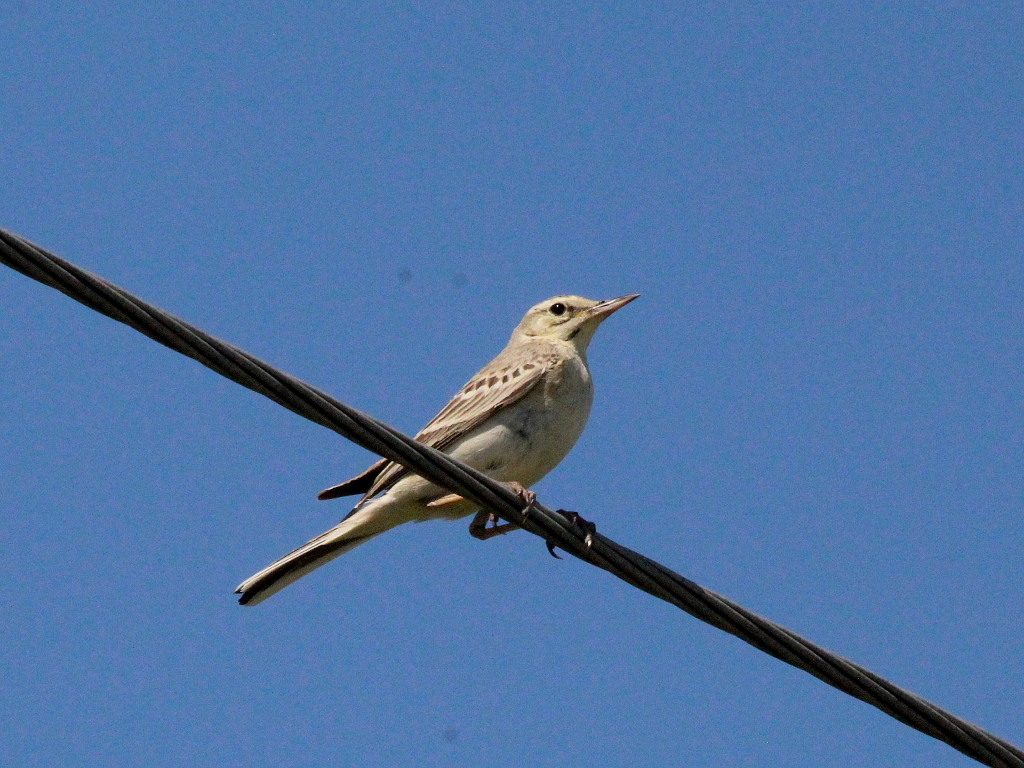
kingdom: Animalia
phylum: Chordata
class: Aves
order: Passeriformes
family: Motacillidae
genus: Anthus
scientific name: Anthus campestris
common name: Tawny pipit
